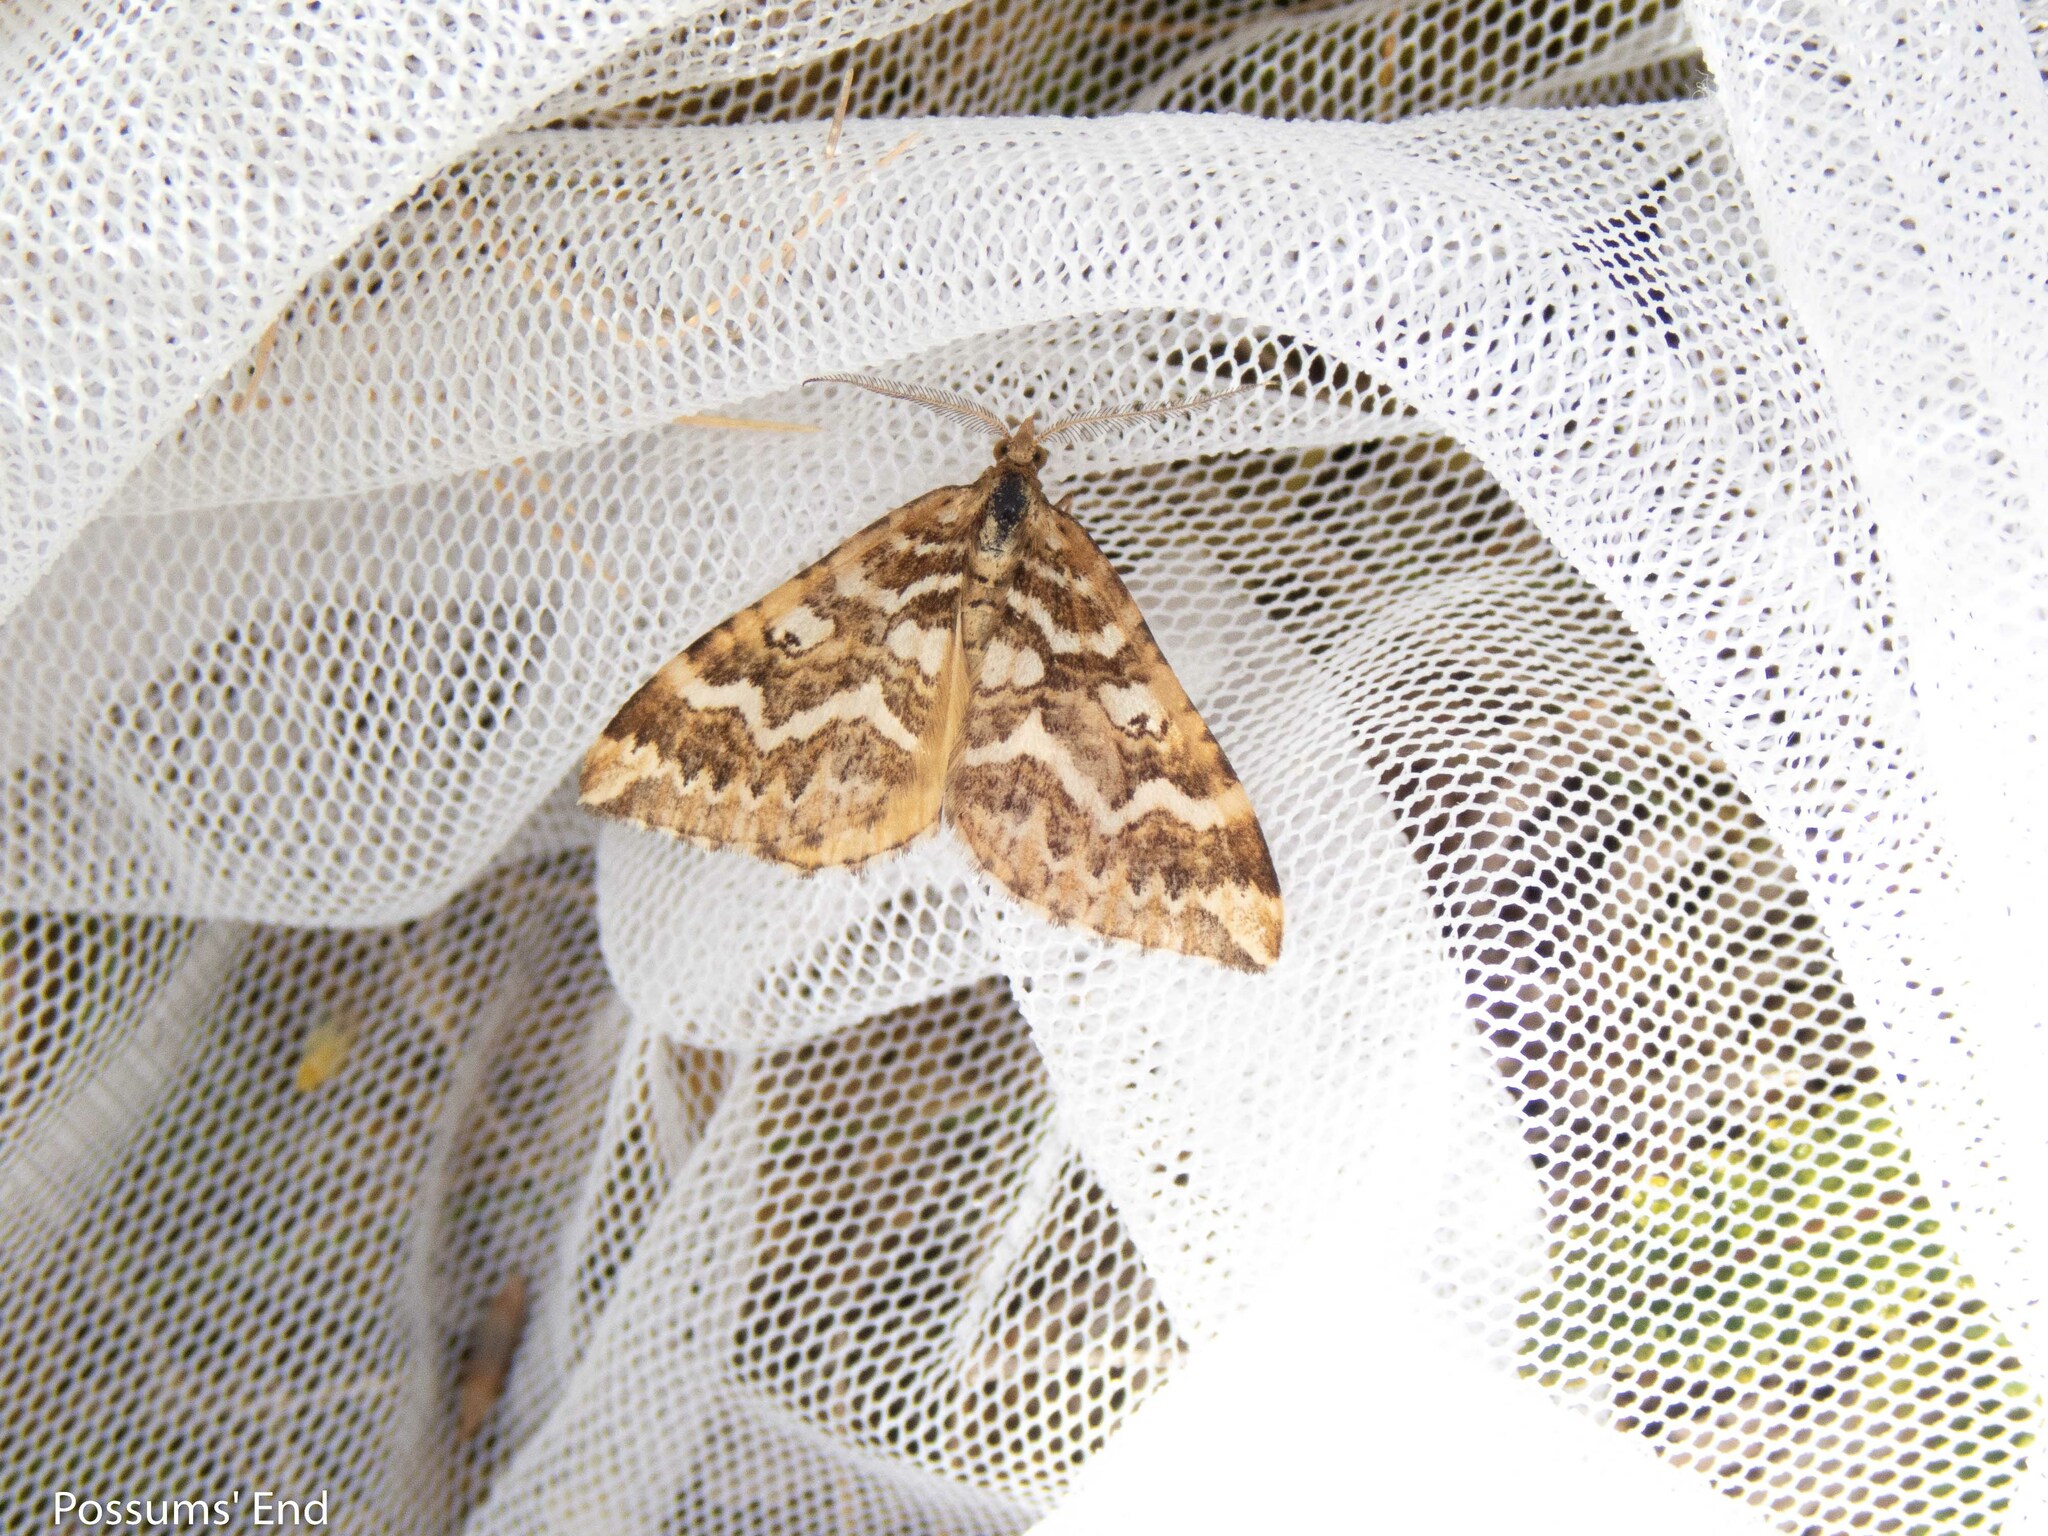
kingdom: Animalia
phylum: Arthropoda
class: Insecta
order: Lepidoptera
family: Geometridae
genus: Asaphodes
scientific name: Asaphodes clarata
